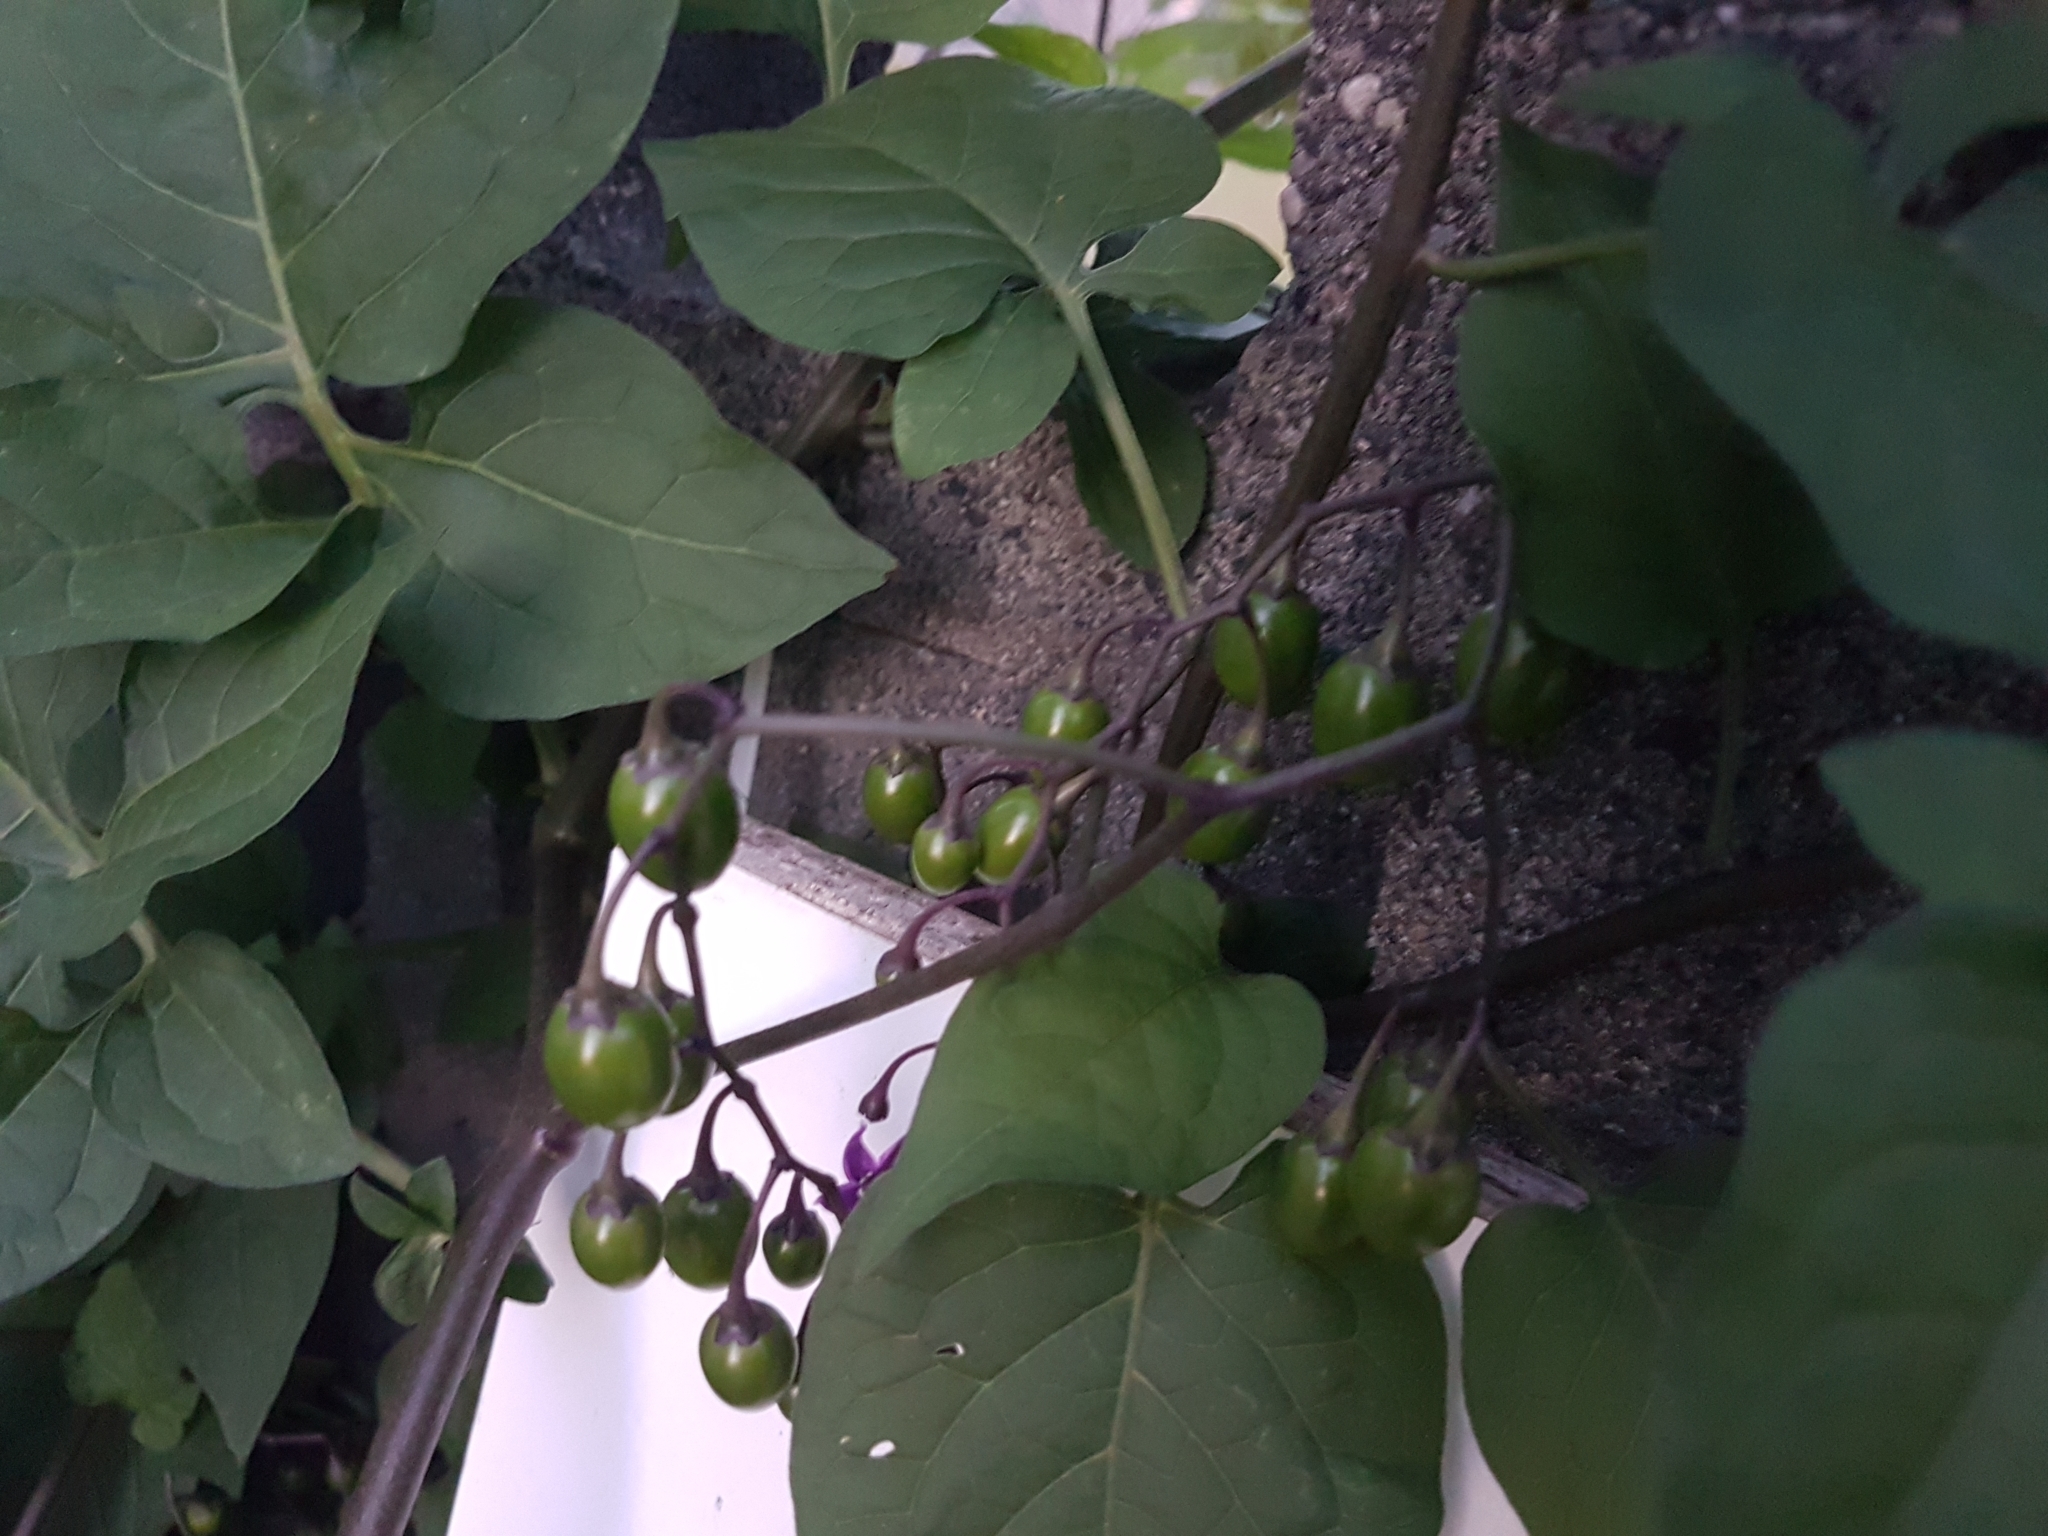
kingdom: Plantae
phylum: Tracheophyta
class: Magnoliopsida
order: Solanales
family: Solanaceae
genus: Solanum
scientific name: Solanum dulcamara
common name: Climbing nightshade
